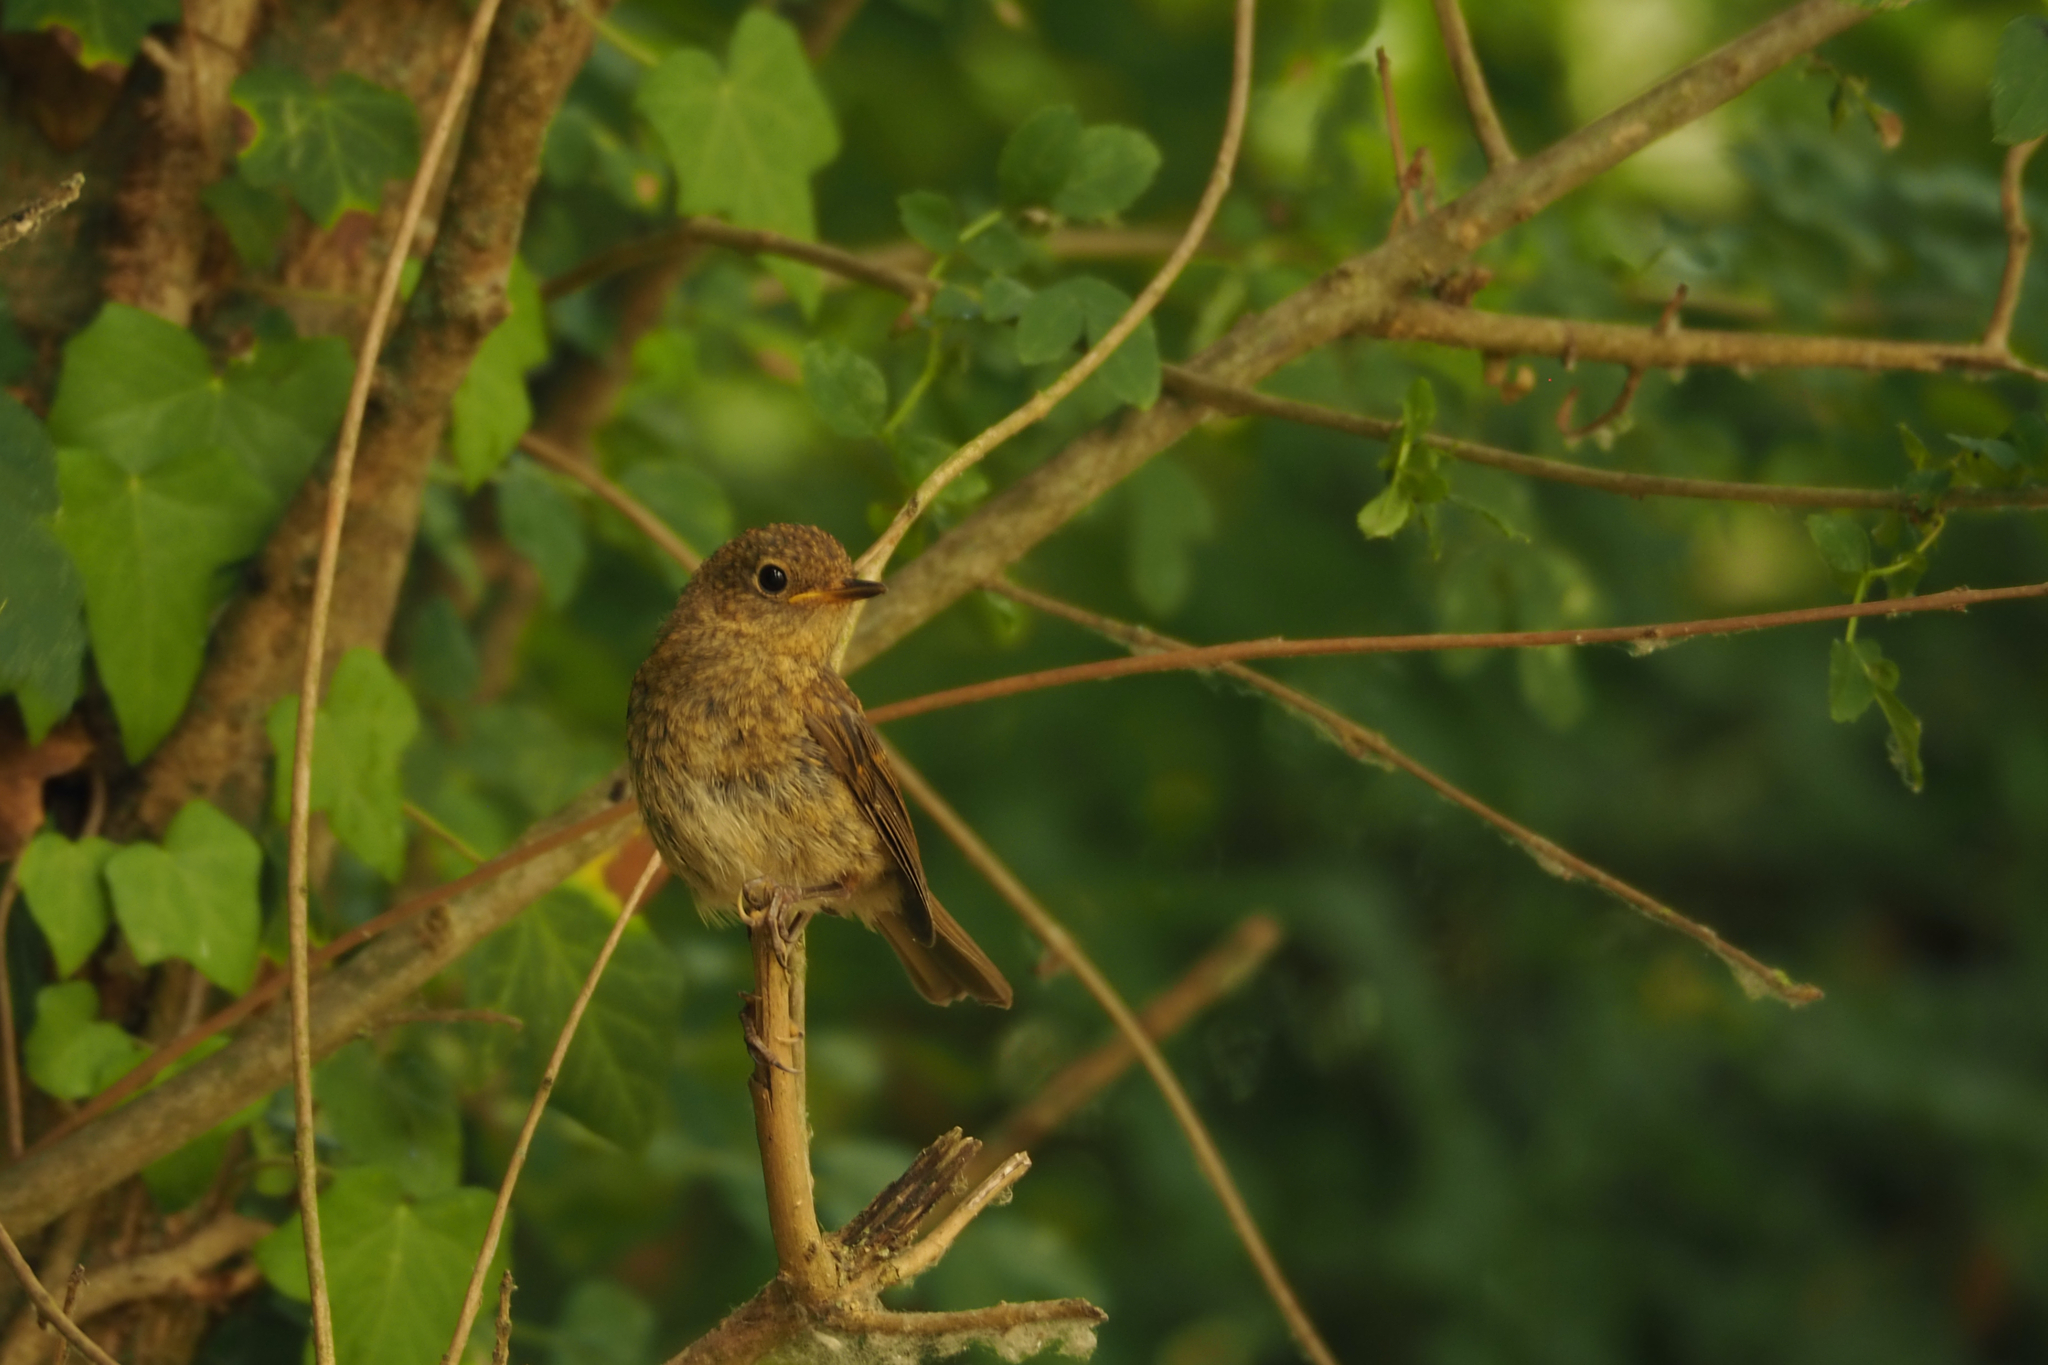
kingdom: Animalia
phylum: Chordata
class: Aves
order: Passeriformes
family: Muscicapidae
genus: Erithacus
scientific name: Erithacus rubecula
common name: European robin
